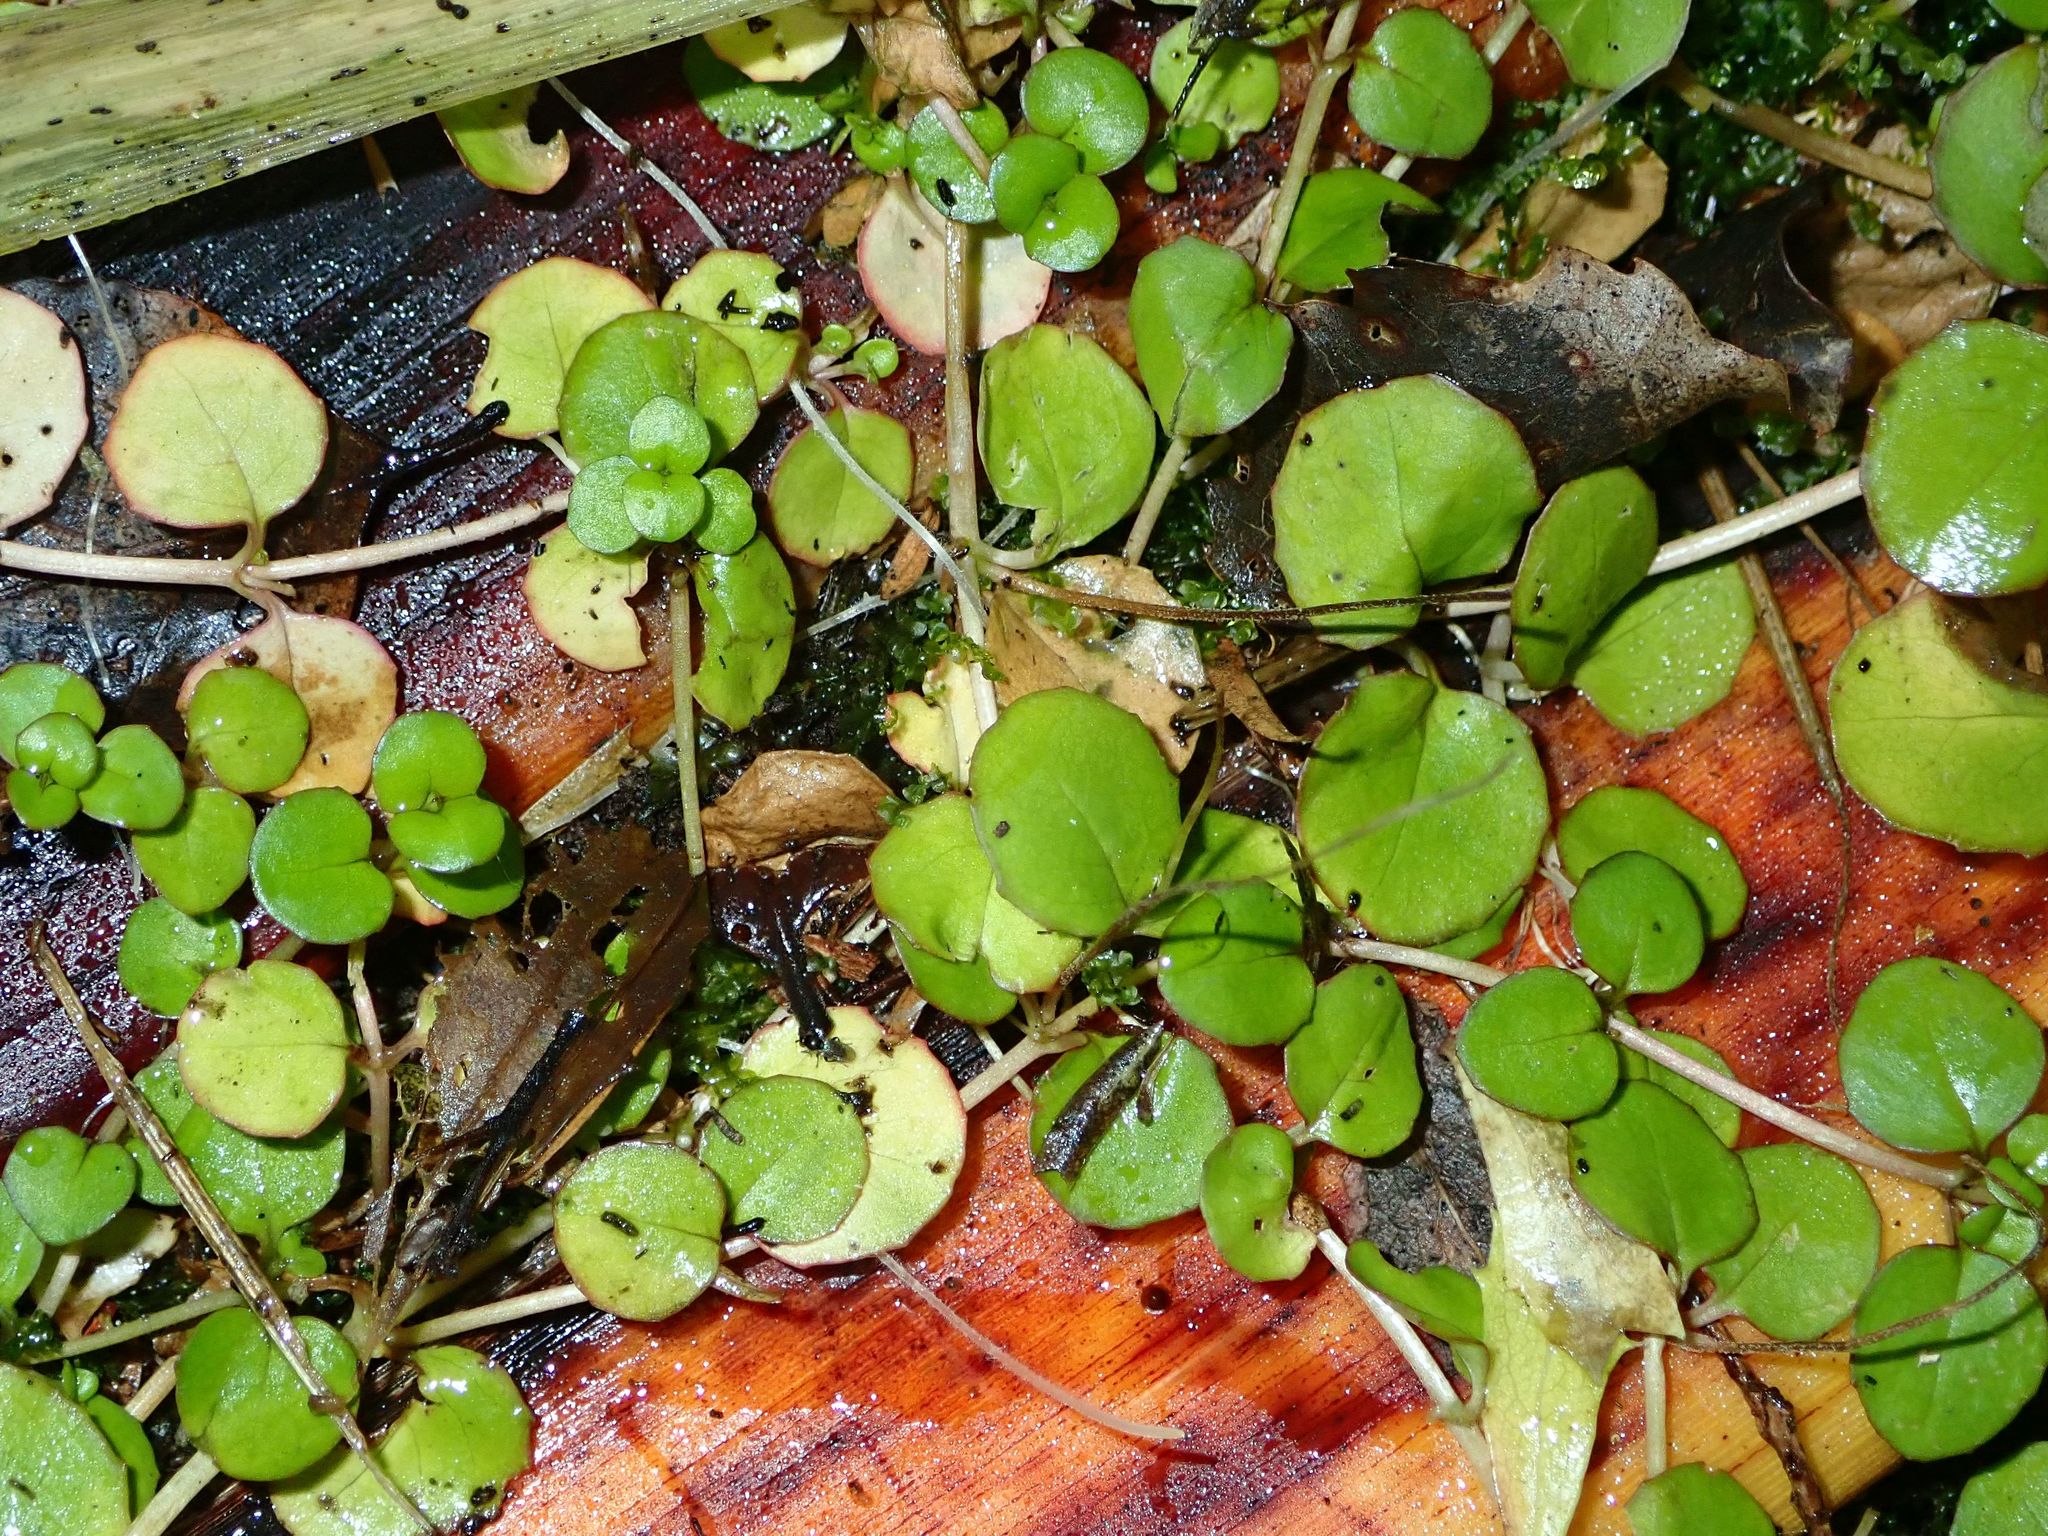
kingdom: Plantae
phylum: Tracheophyta
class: Magnoliopsida
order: Myrtales
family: Onagraceae
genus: Epilobium
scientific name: Epilobium nummularifolium
